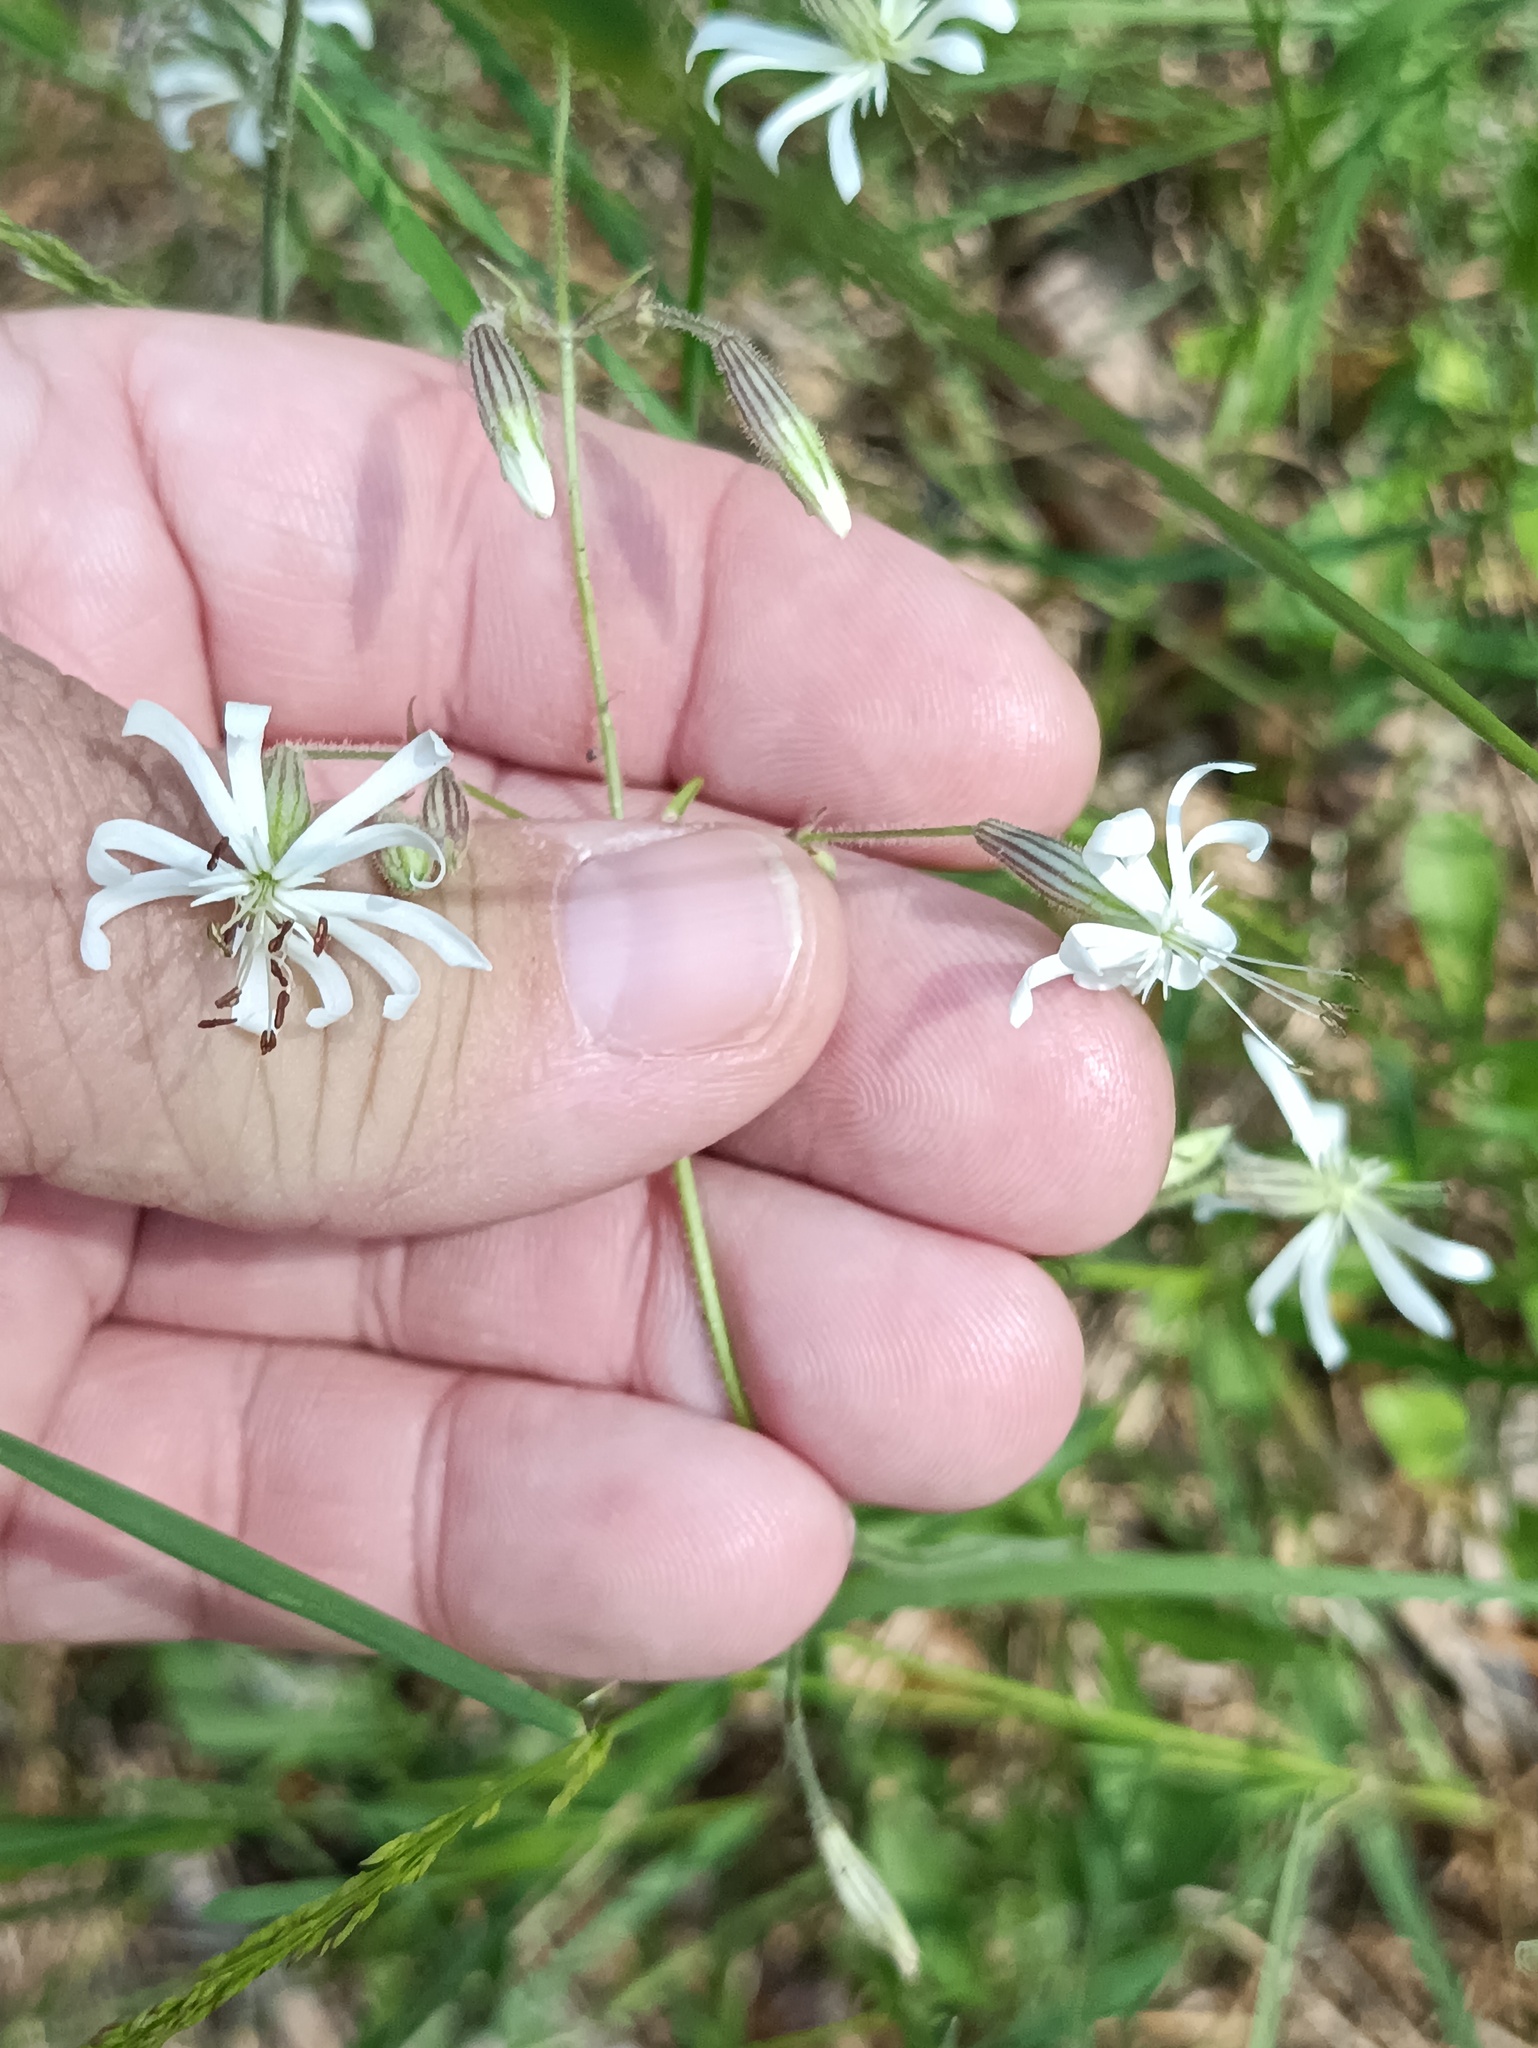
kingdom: Plantae
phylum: Tracheophyta
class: Magnoliopsida
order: Caryophyllales
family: Caryophyllaceae
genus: Silene
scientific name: Silene nutans
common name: Nottingham catchfly
